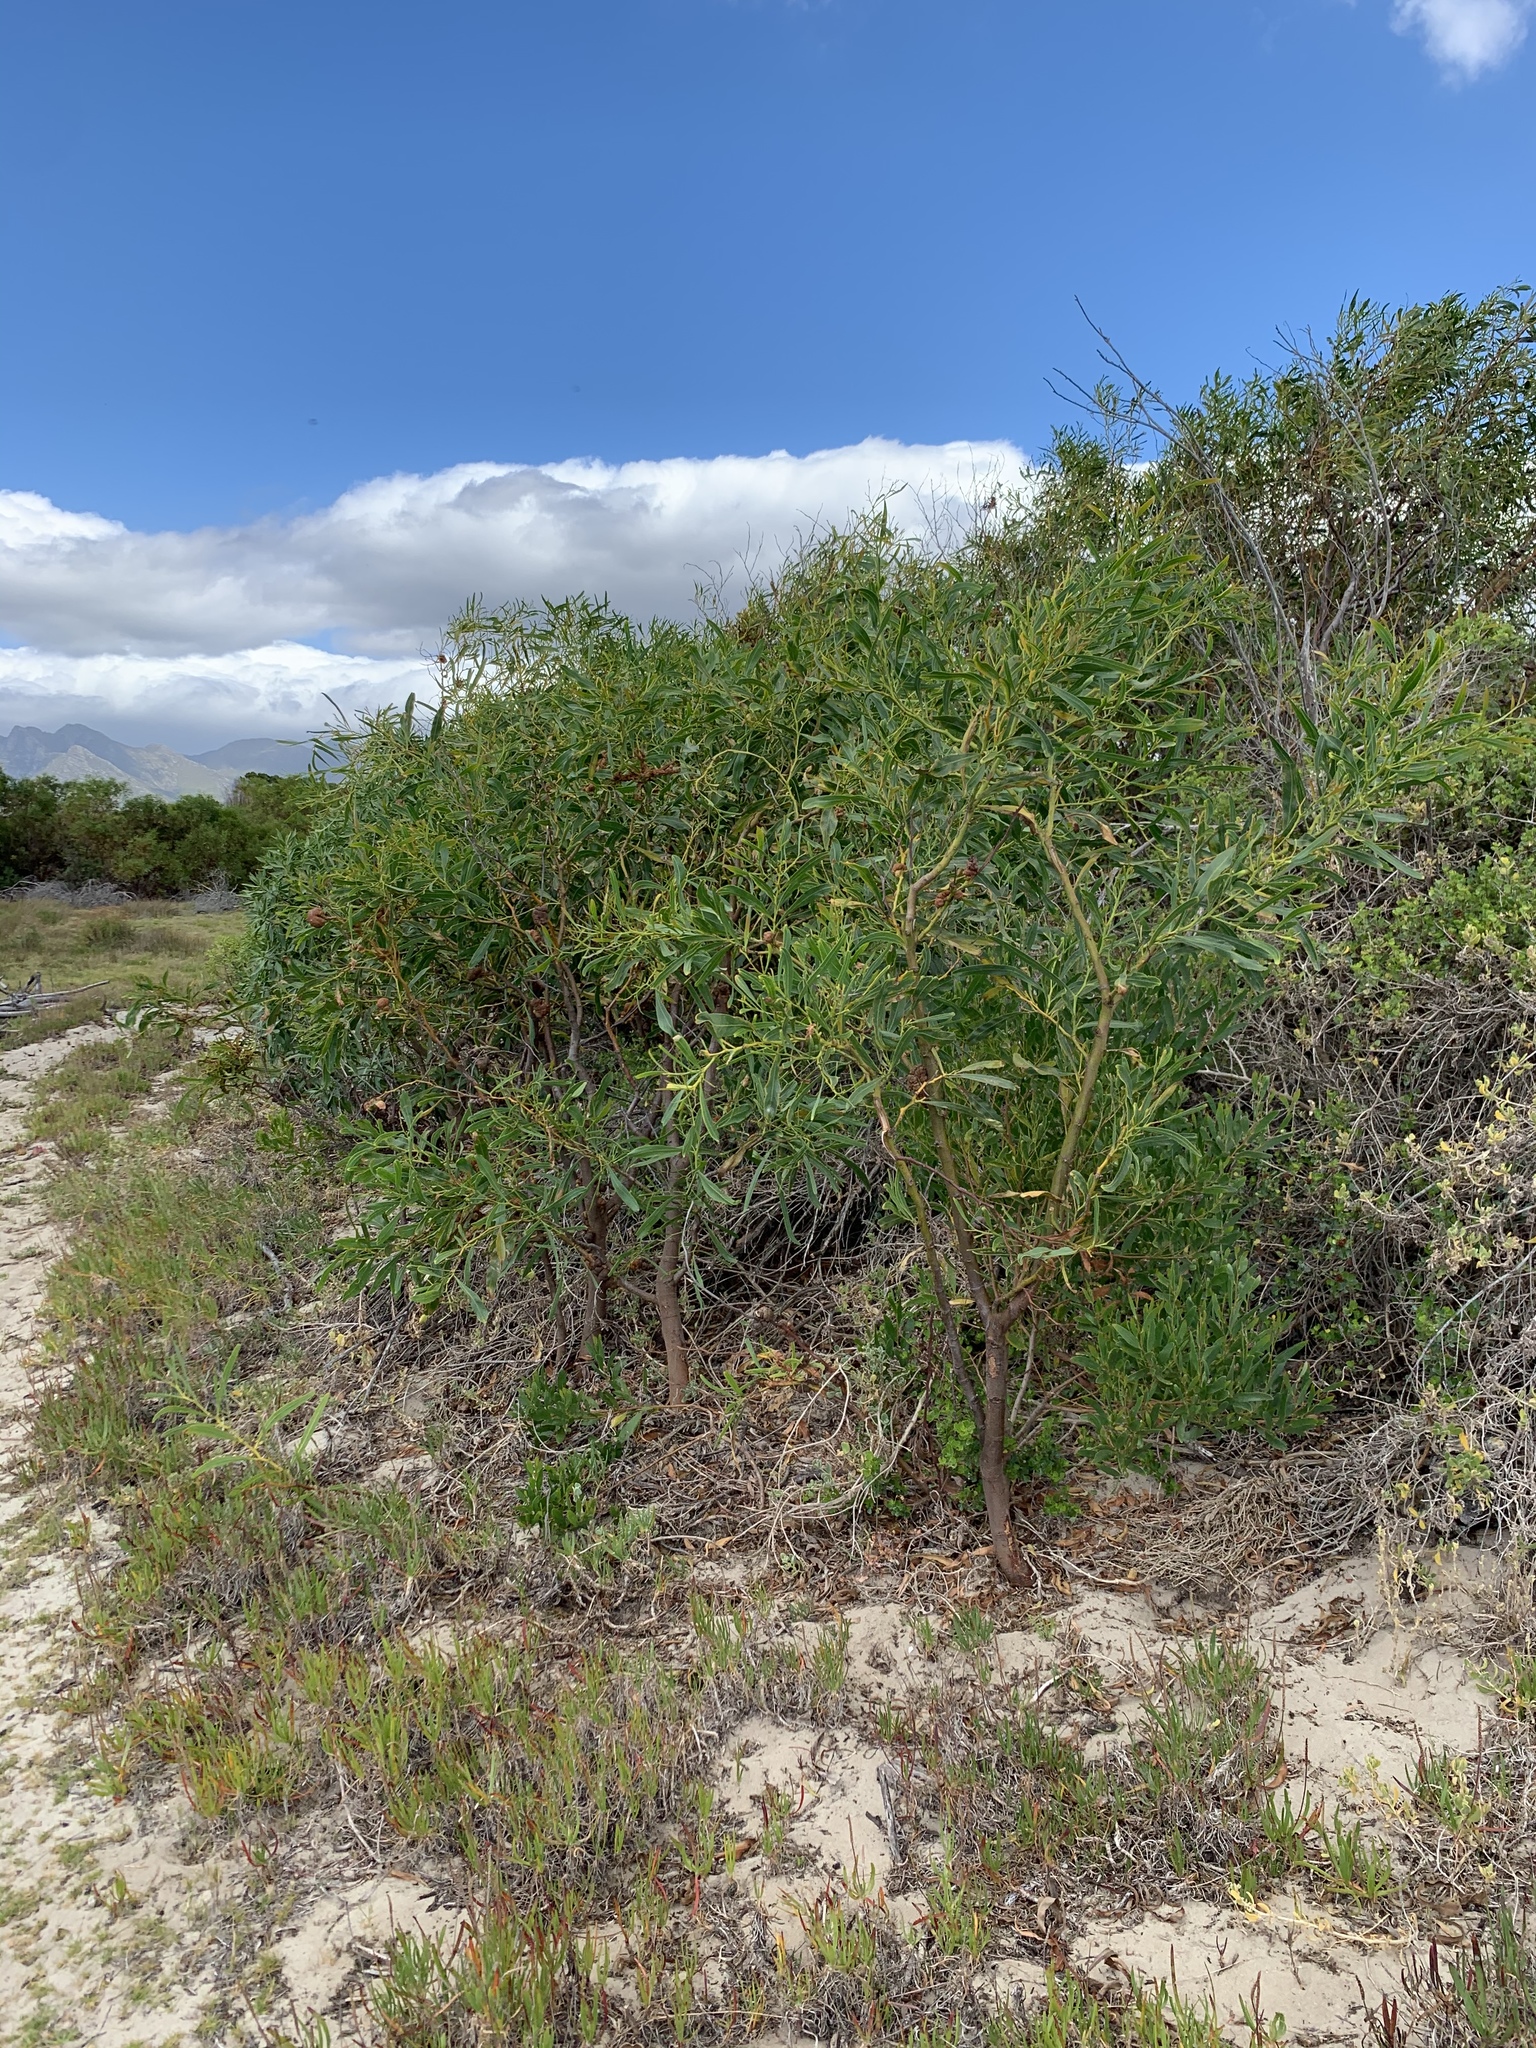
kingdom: Plantae
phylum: Tracheophyta
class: Magnoliopsida
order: Fabales
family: Fabaceae
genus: Acacia
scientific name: Acacia saligna
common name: Orange wattle
